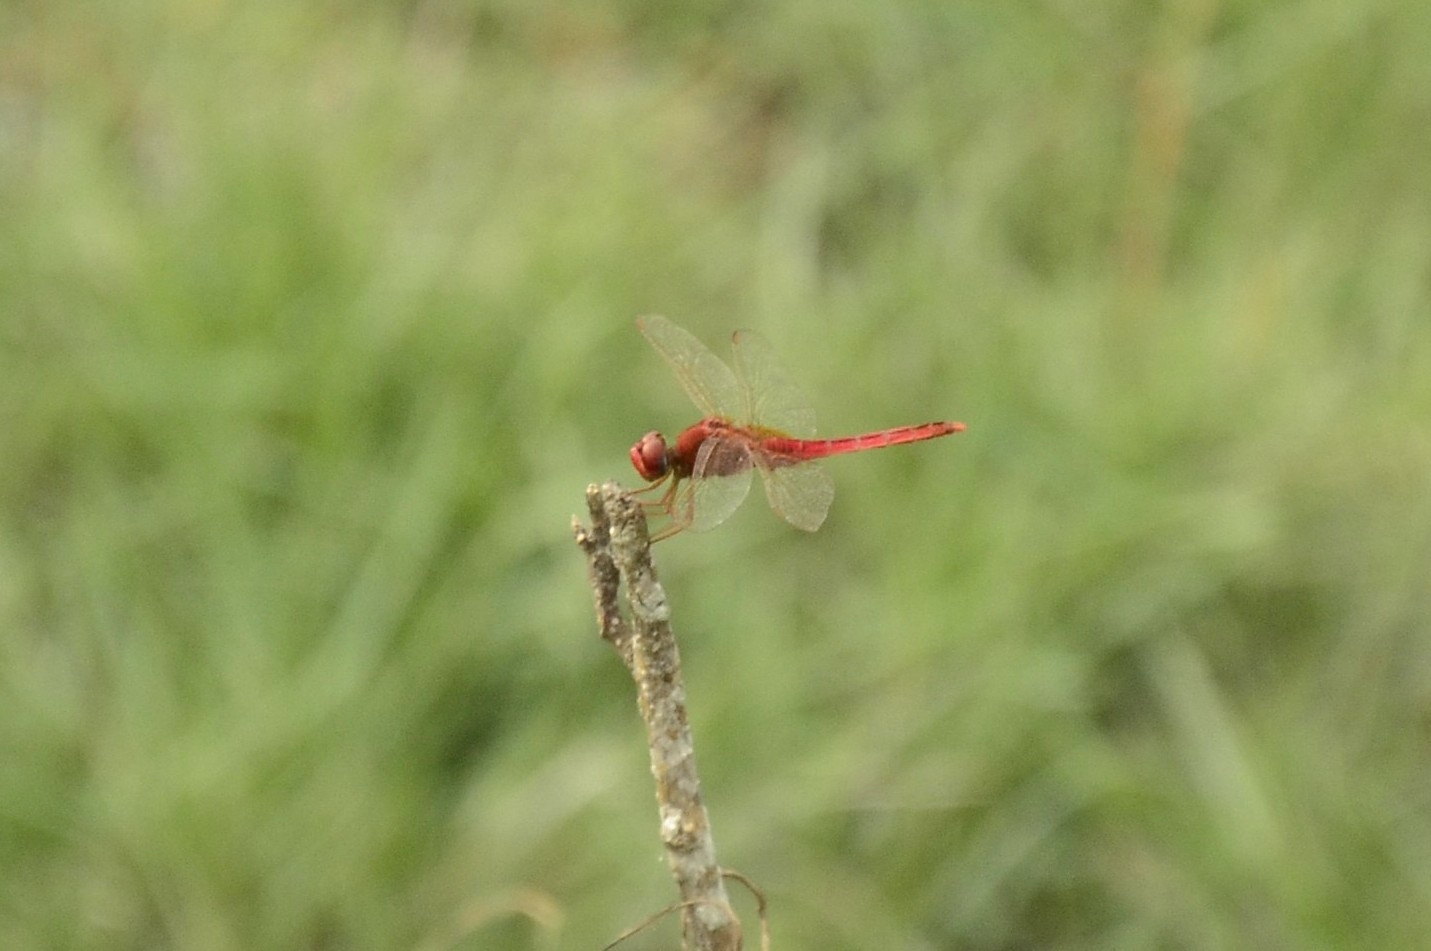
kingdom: Animalia
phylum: Arthropoda
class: Insecta
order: Odonata
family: Libellulidae
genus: Crocothemis
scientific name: Crocothemis servilia
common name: Scarlet skimmer
